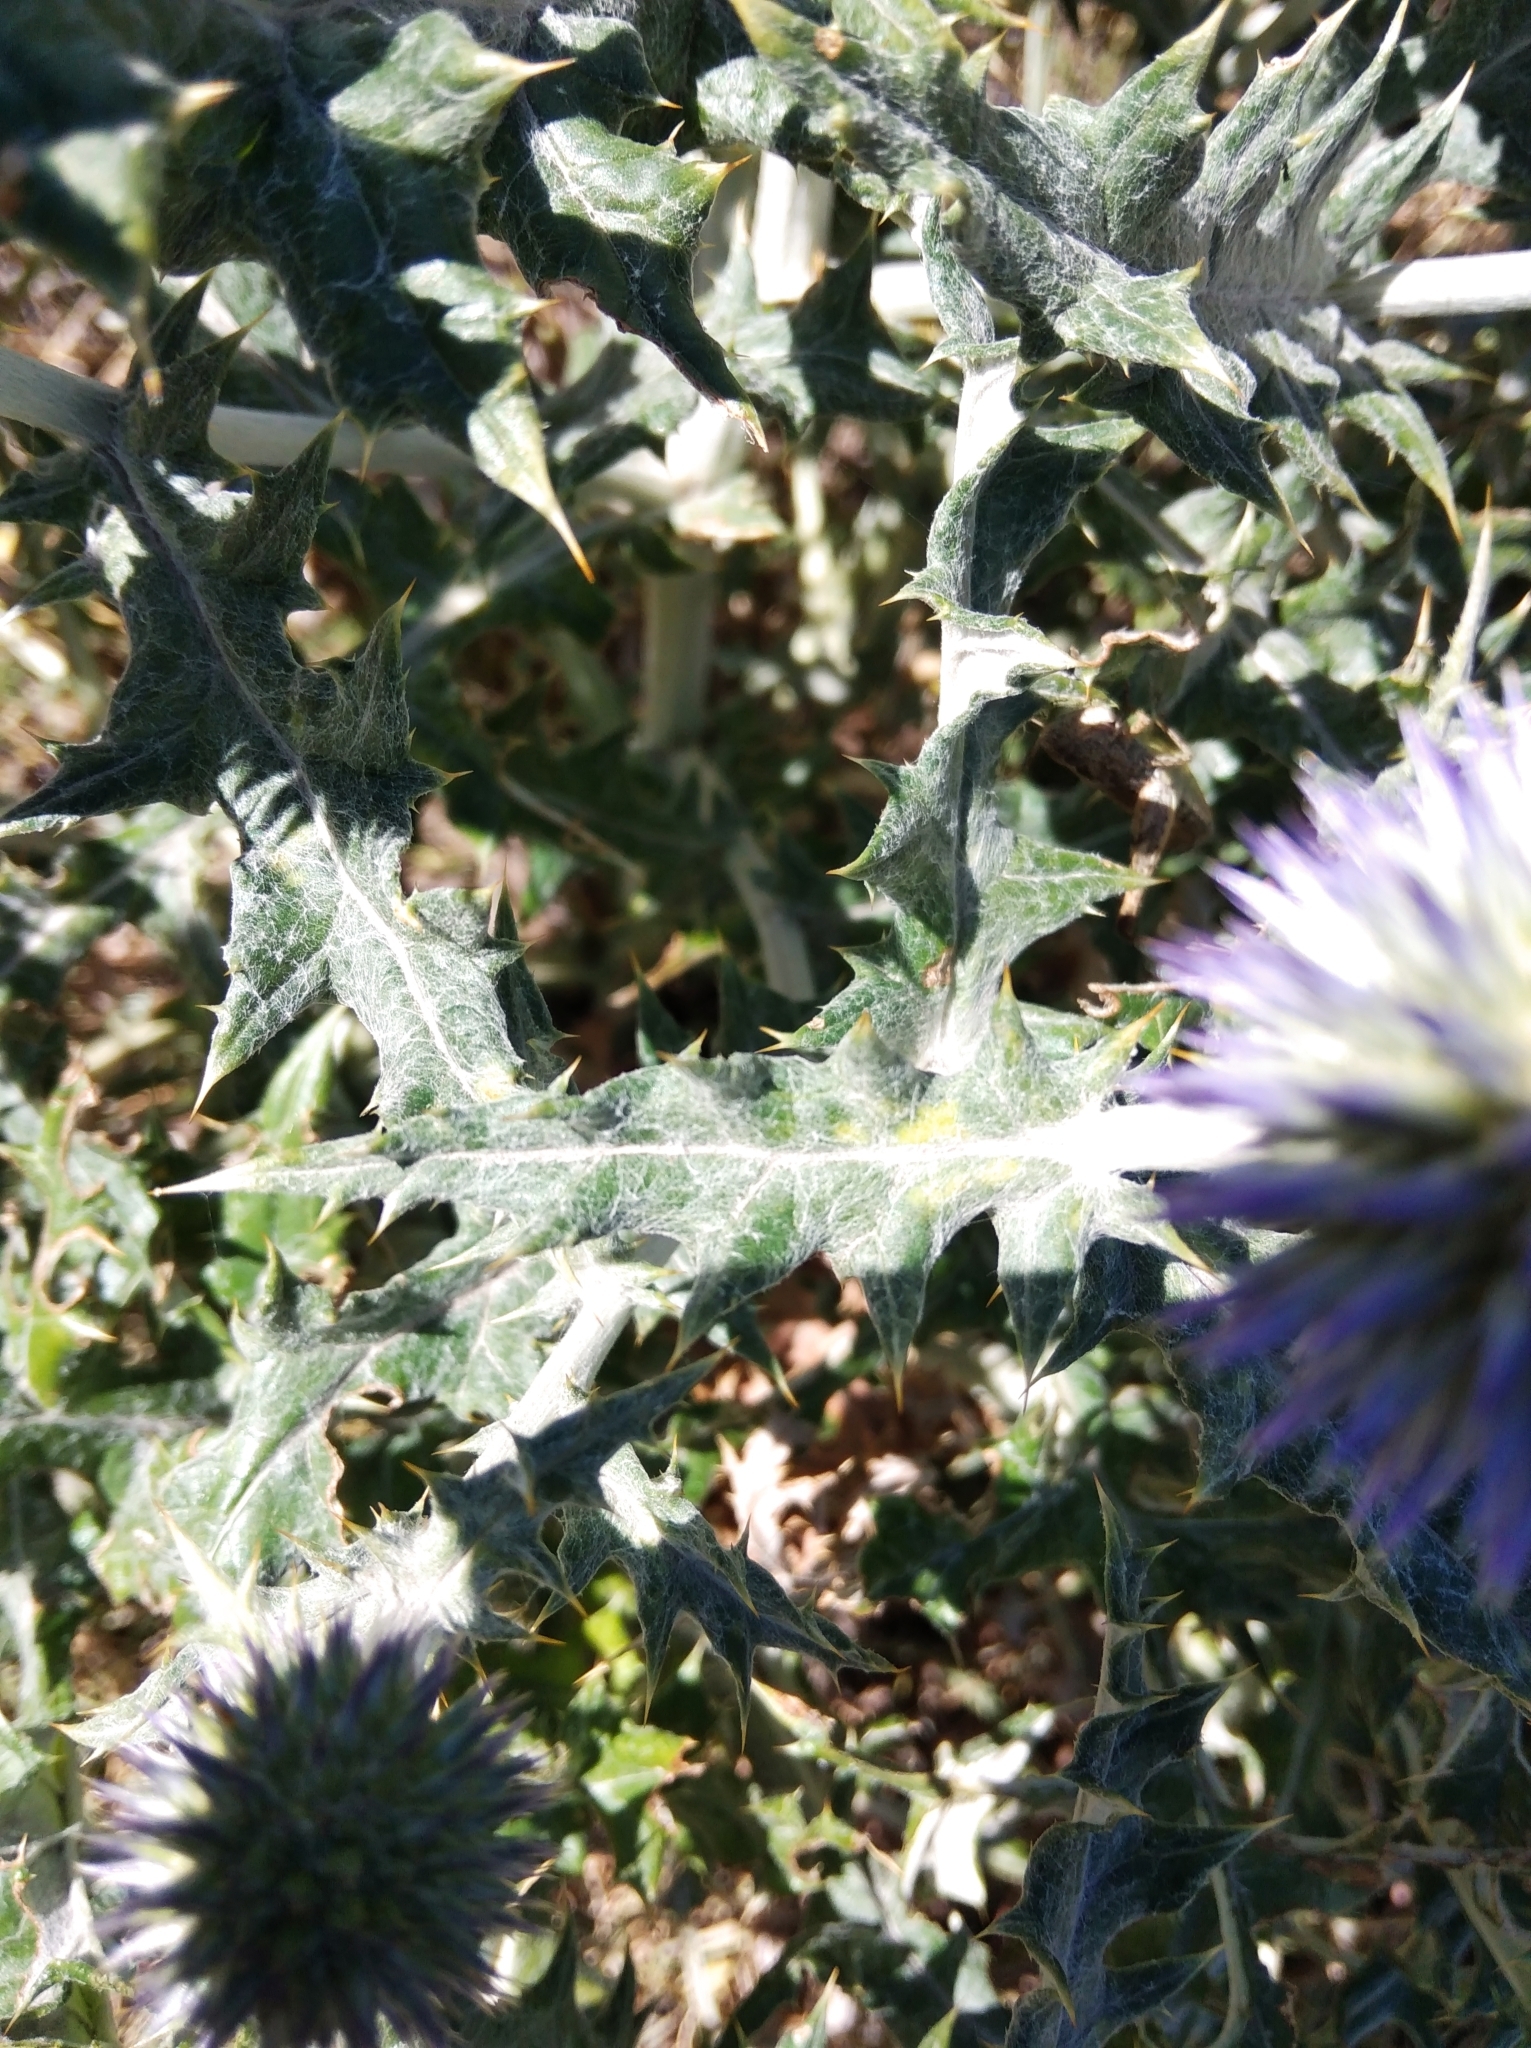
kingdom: Plantae
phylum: Tracheophyta
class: Magnoliopsida
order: Asterales
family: Asteraceae
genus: Echinops
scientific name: Echinops ritro
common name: Globe thistle
